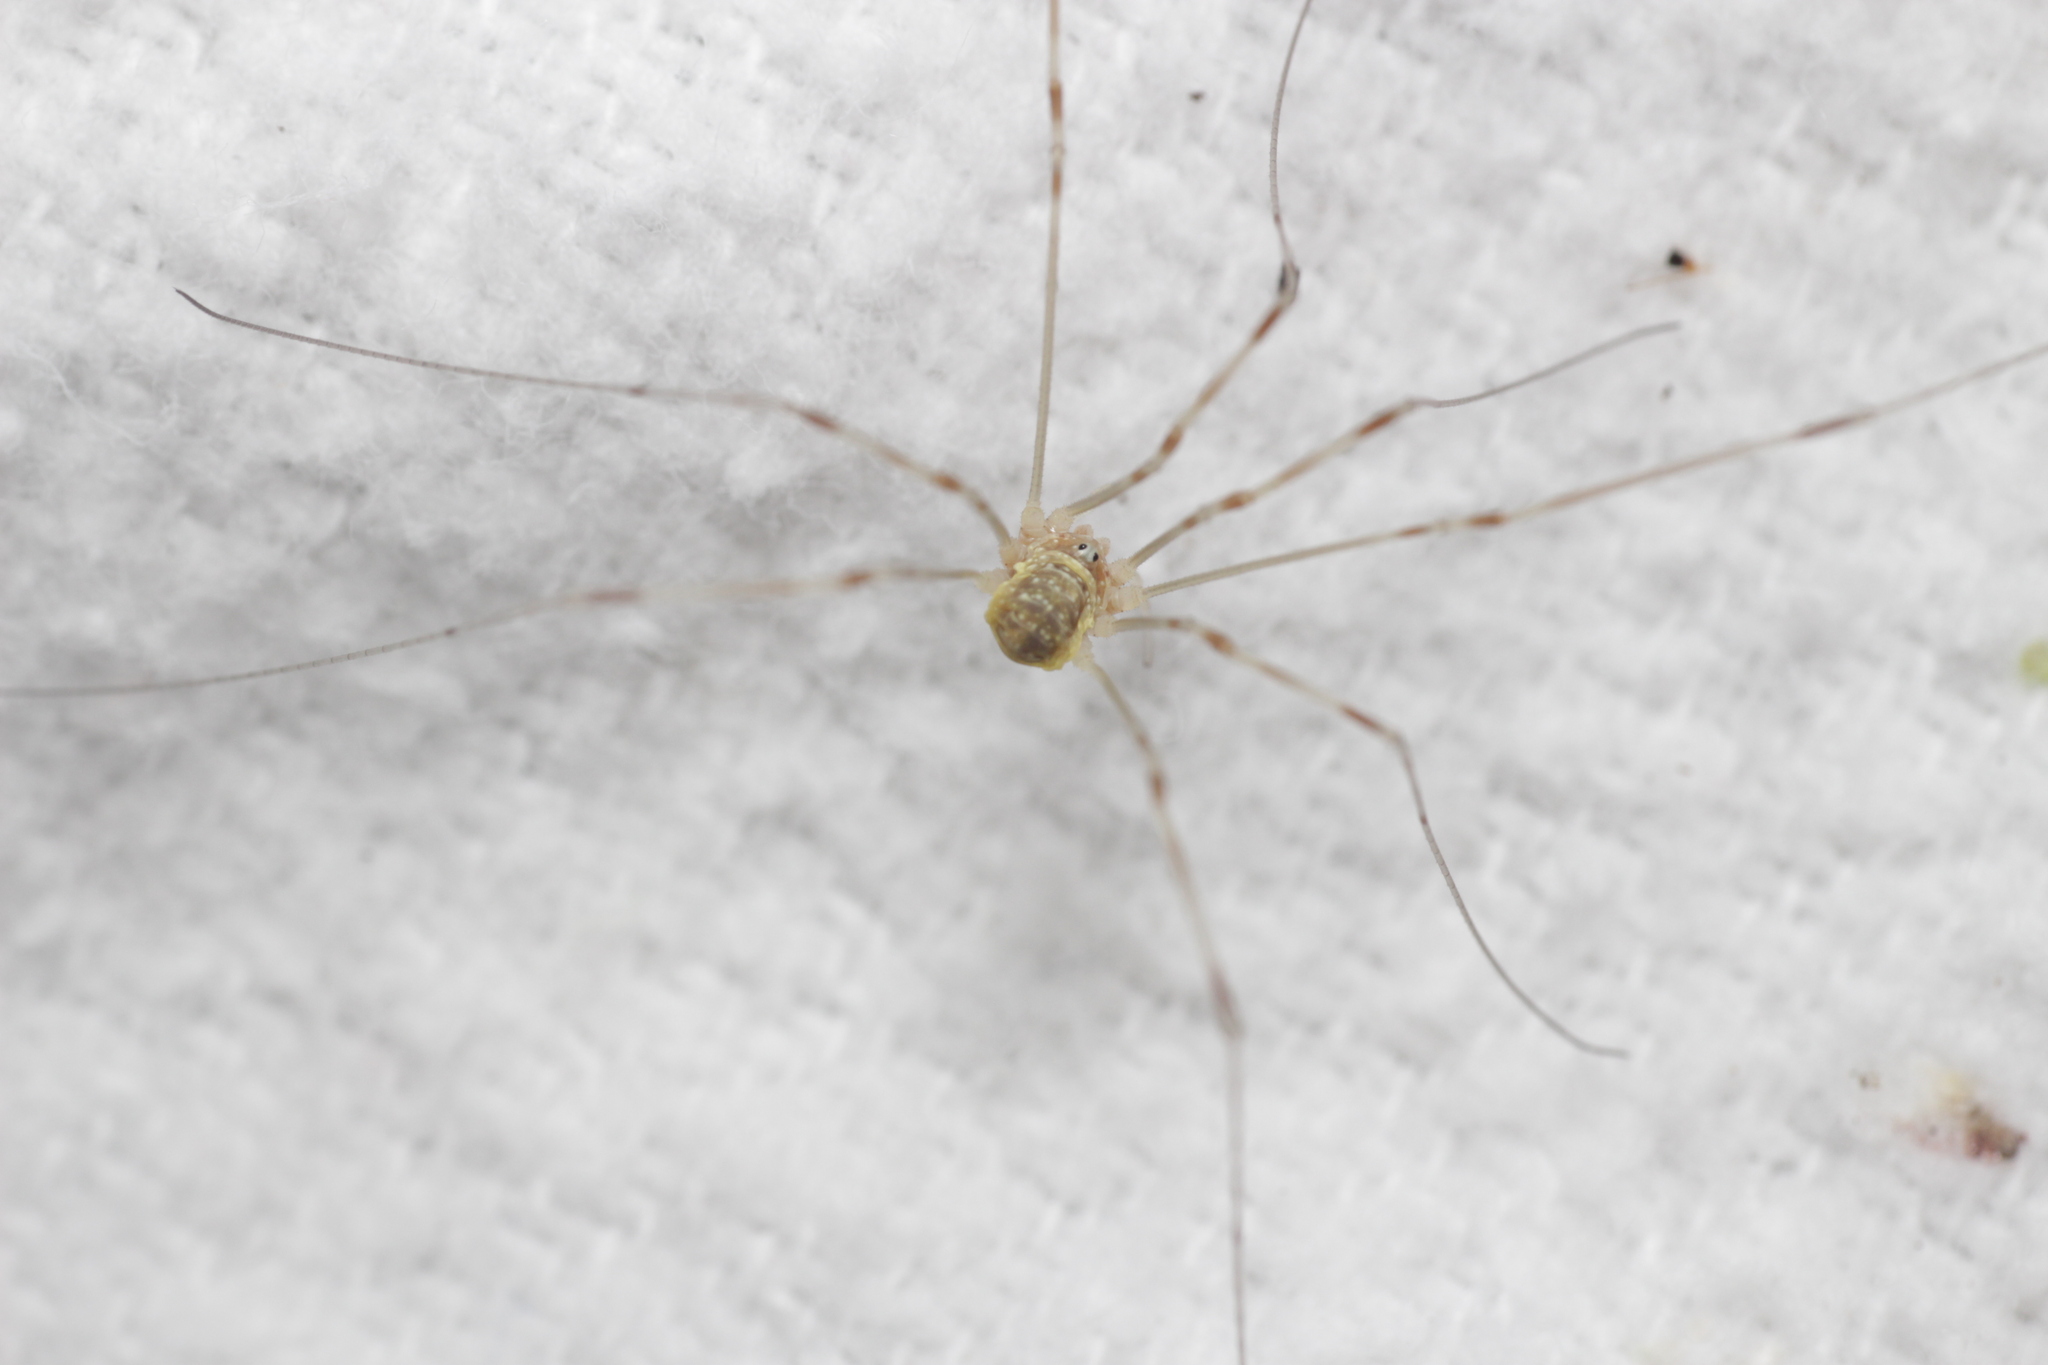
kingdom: Animalia
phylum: Arthropoda
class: Arachnida
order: Opiliones
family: Phalangiidae
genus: Opilio
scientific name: Opilio canestrinii
